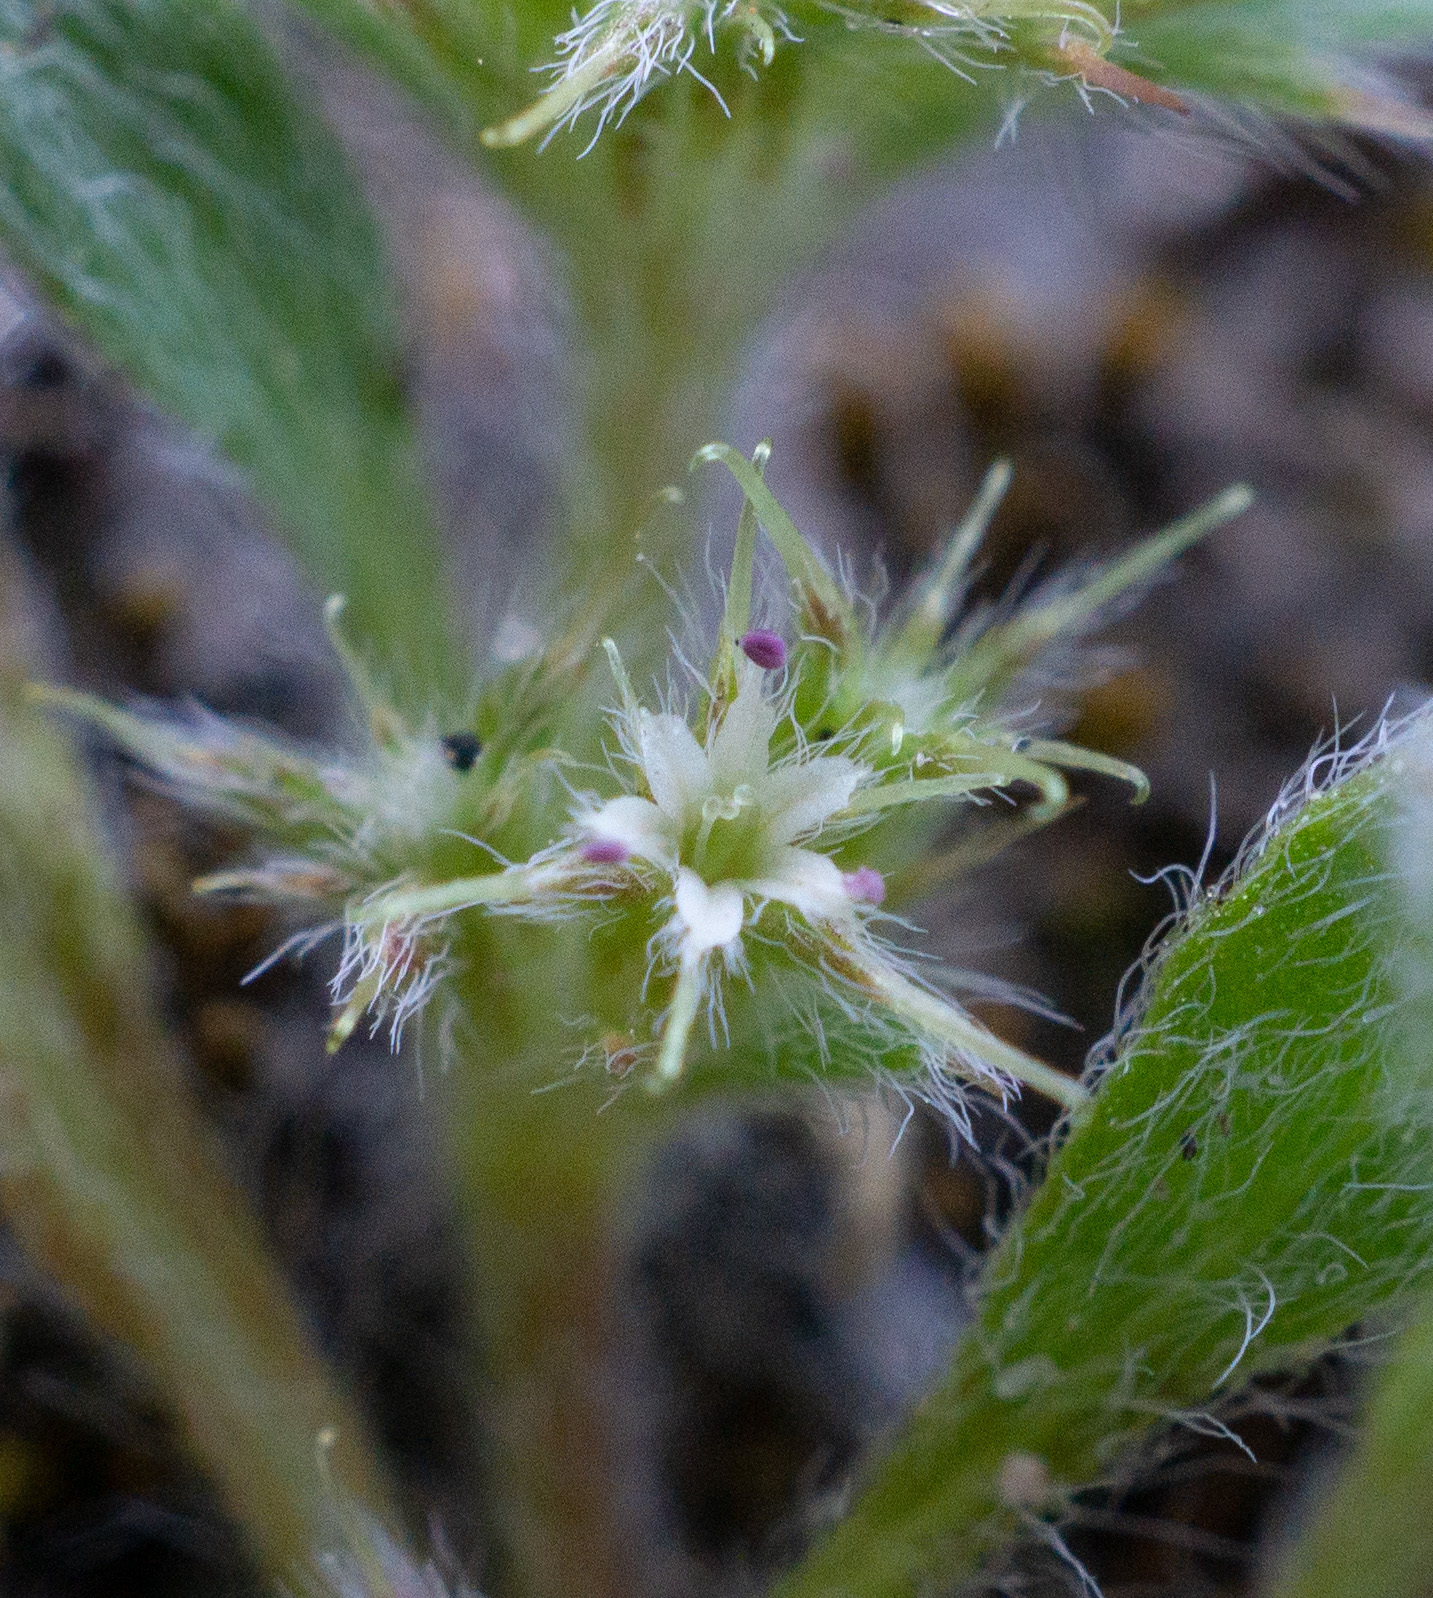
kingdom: Plantae
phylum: Tracheophyta
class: Magnoliopsida
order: Caryophyllales
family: Polygonaceae
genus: Chorizanthe
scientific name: Chorizanthe minutiflora
